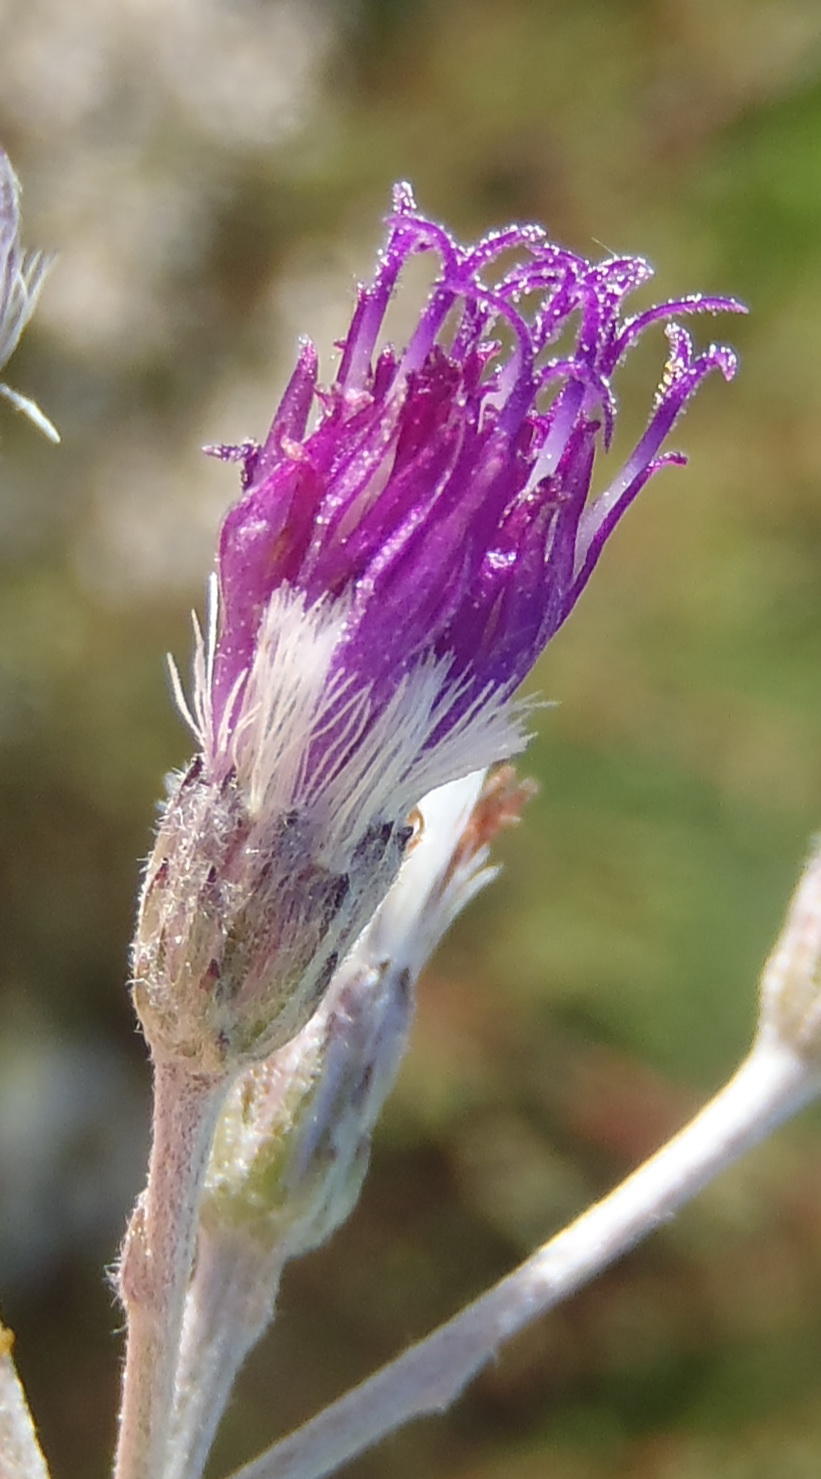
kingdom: Plantae
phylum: Tracheophyta
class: Magnoliopsida
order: Asterales
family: Asteraceae
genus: Hilliardiella
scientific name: Hilliardiella oligocephala
